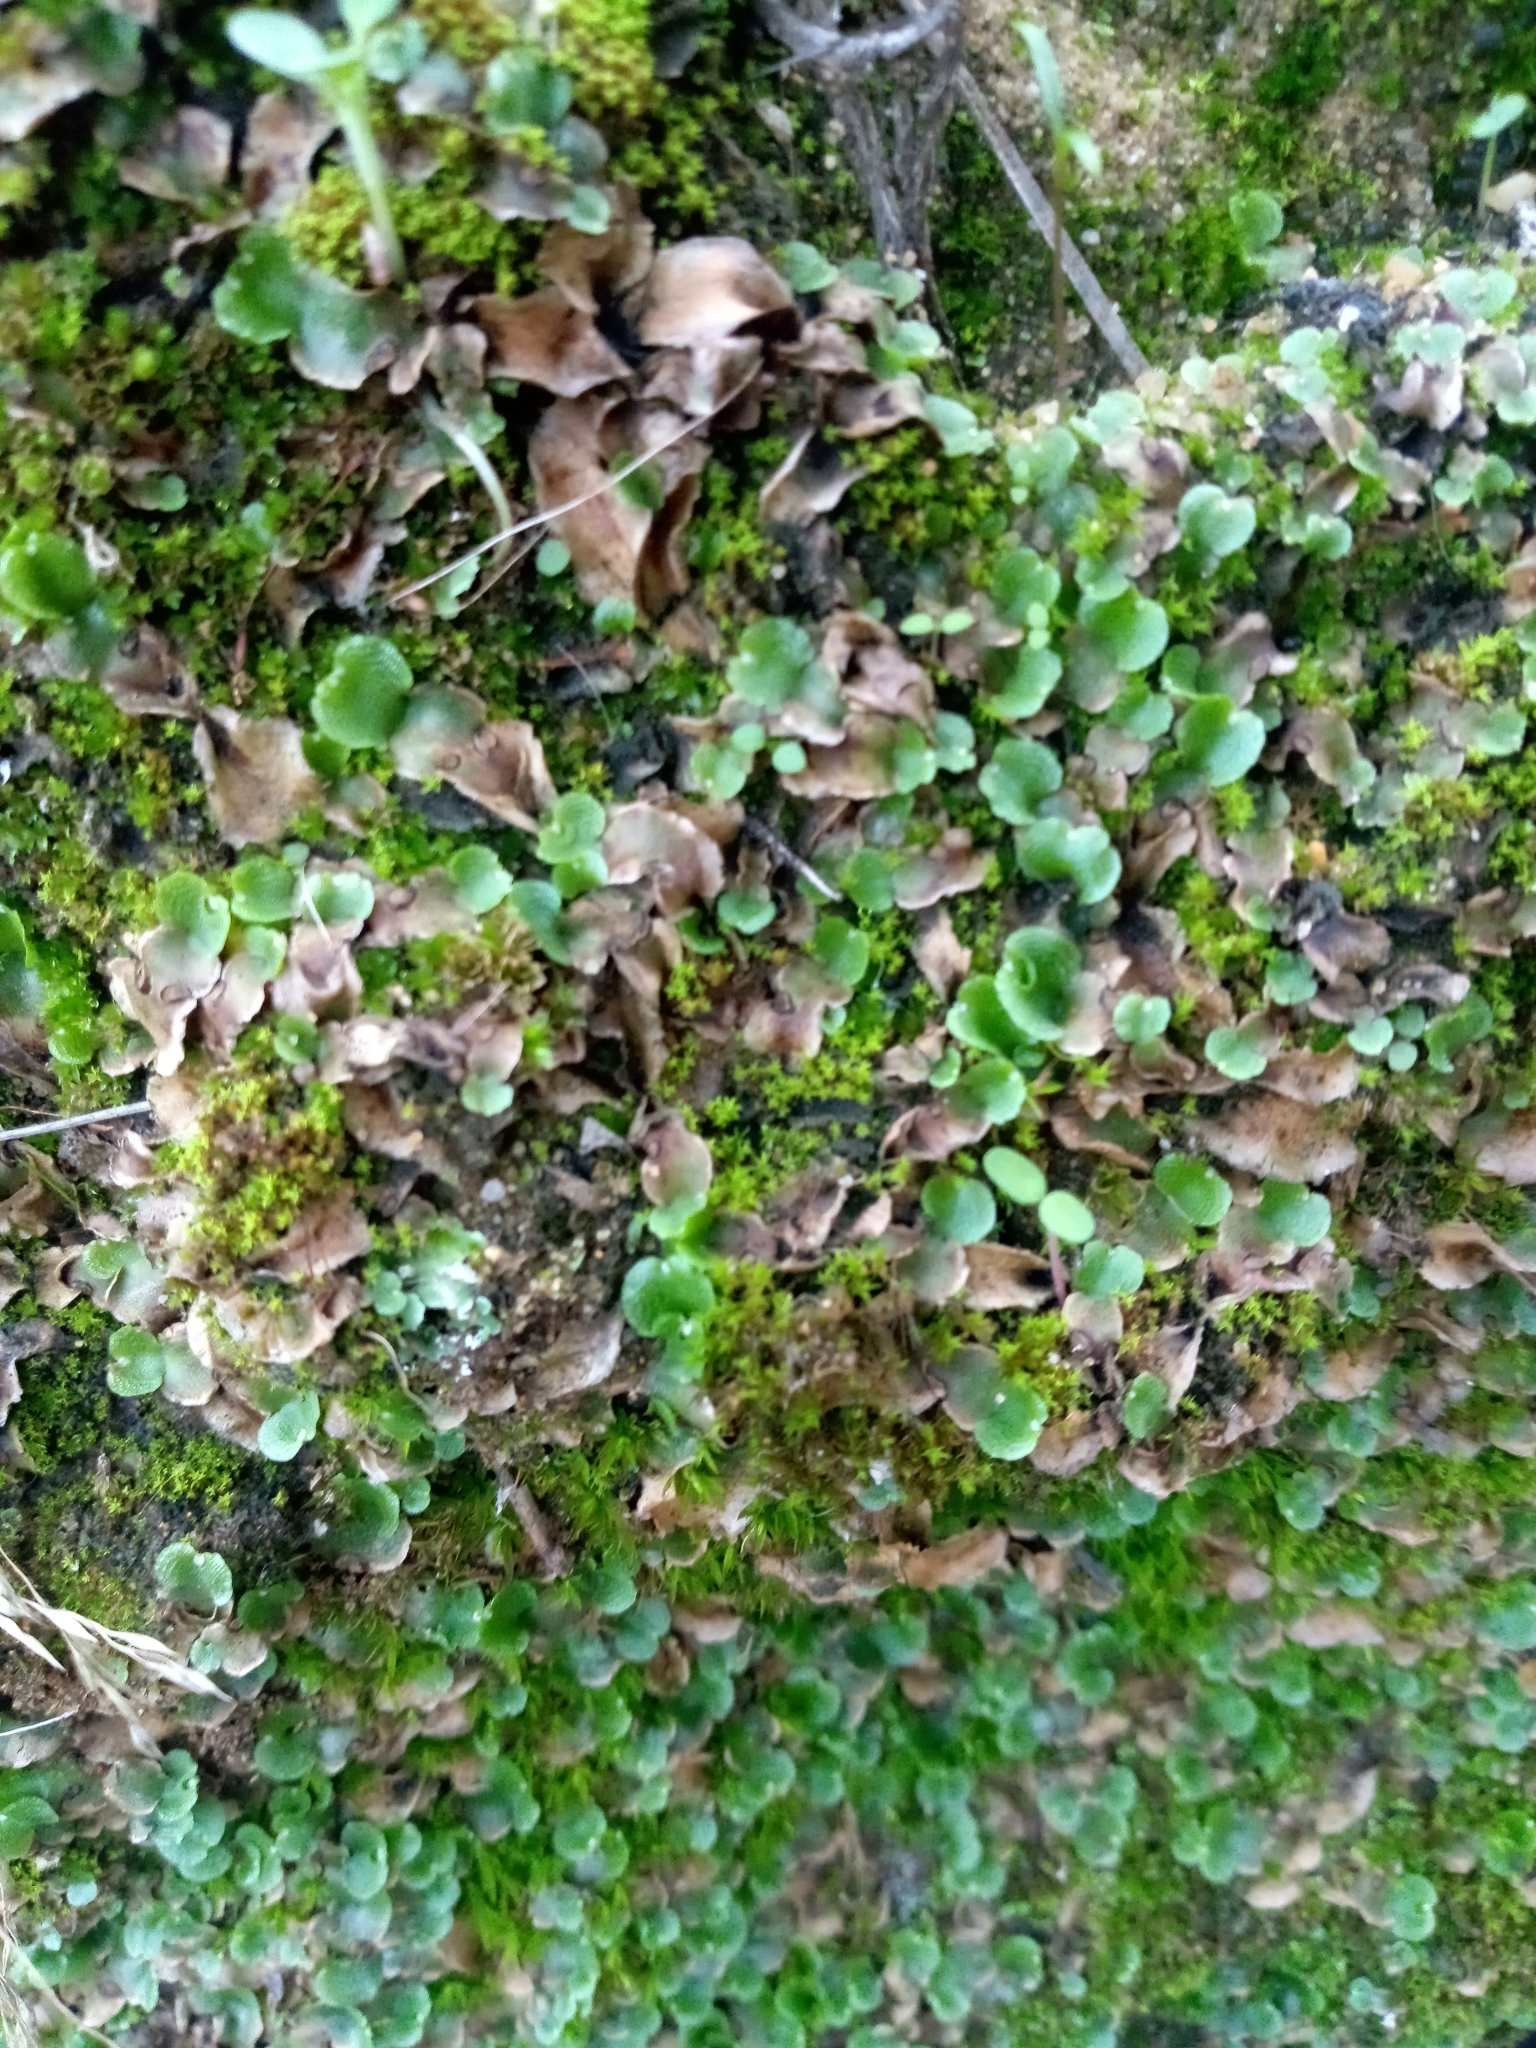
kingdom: Plantae
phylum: Marchantiophyta
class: Marchantiopsida
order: Lunulariales
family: Lunulariaceae
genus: Lunularia
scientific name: Lunularia cruciata
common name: Crescent-cup liverwort
